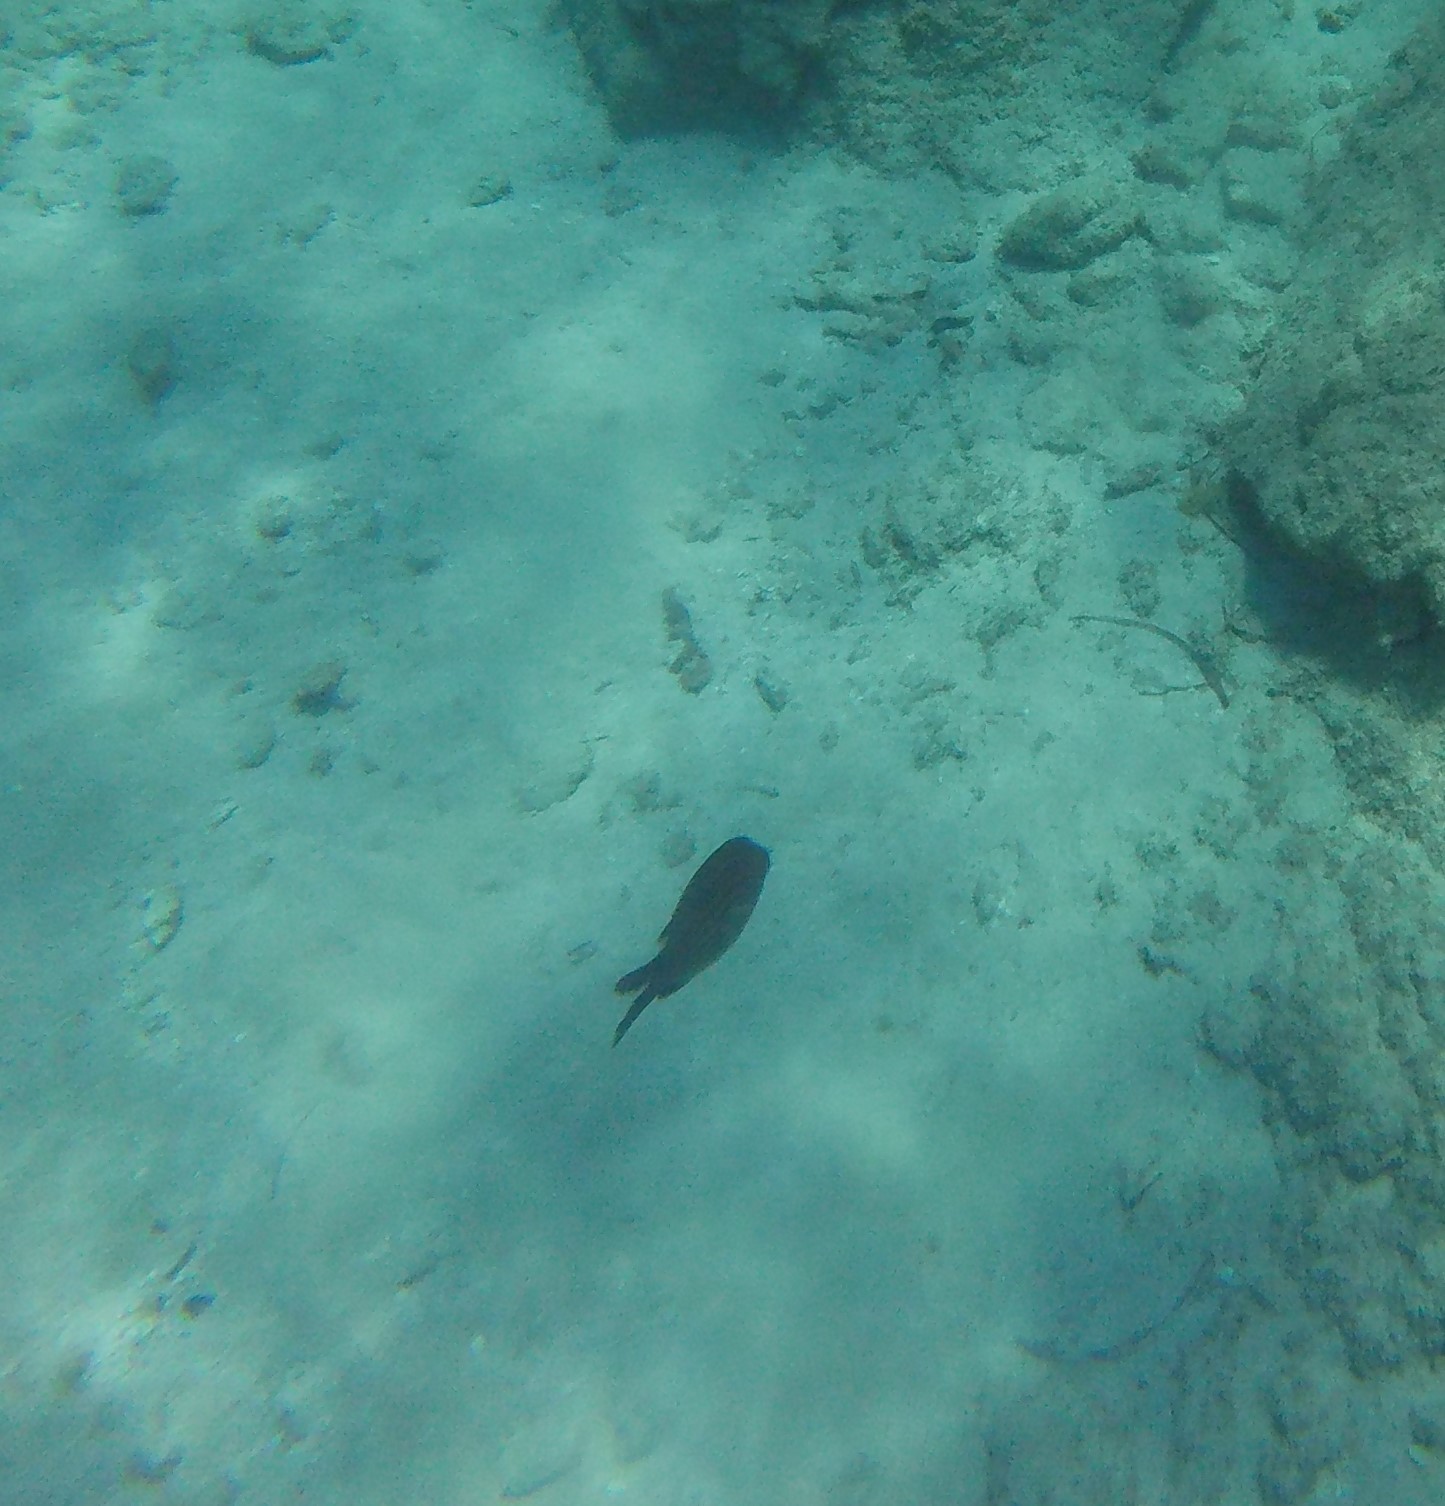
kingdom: Animalia
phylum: Chordata
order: Perciformes
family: Pomacentridae
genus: Chromis
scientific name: Chromis chromis
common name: Damselfish
